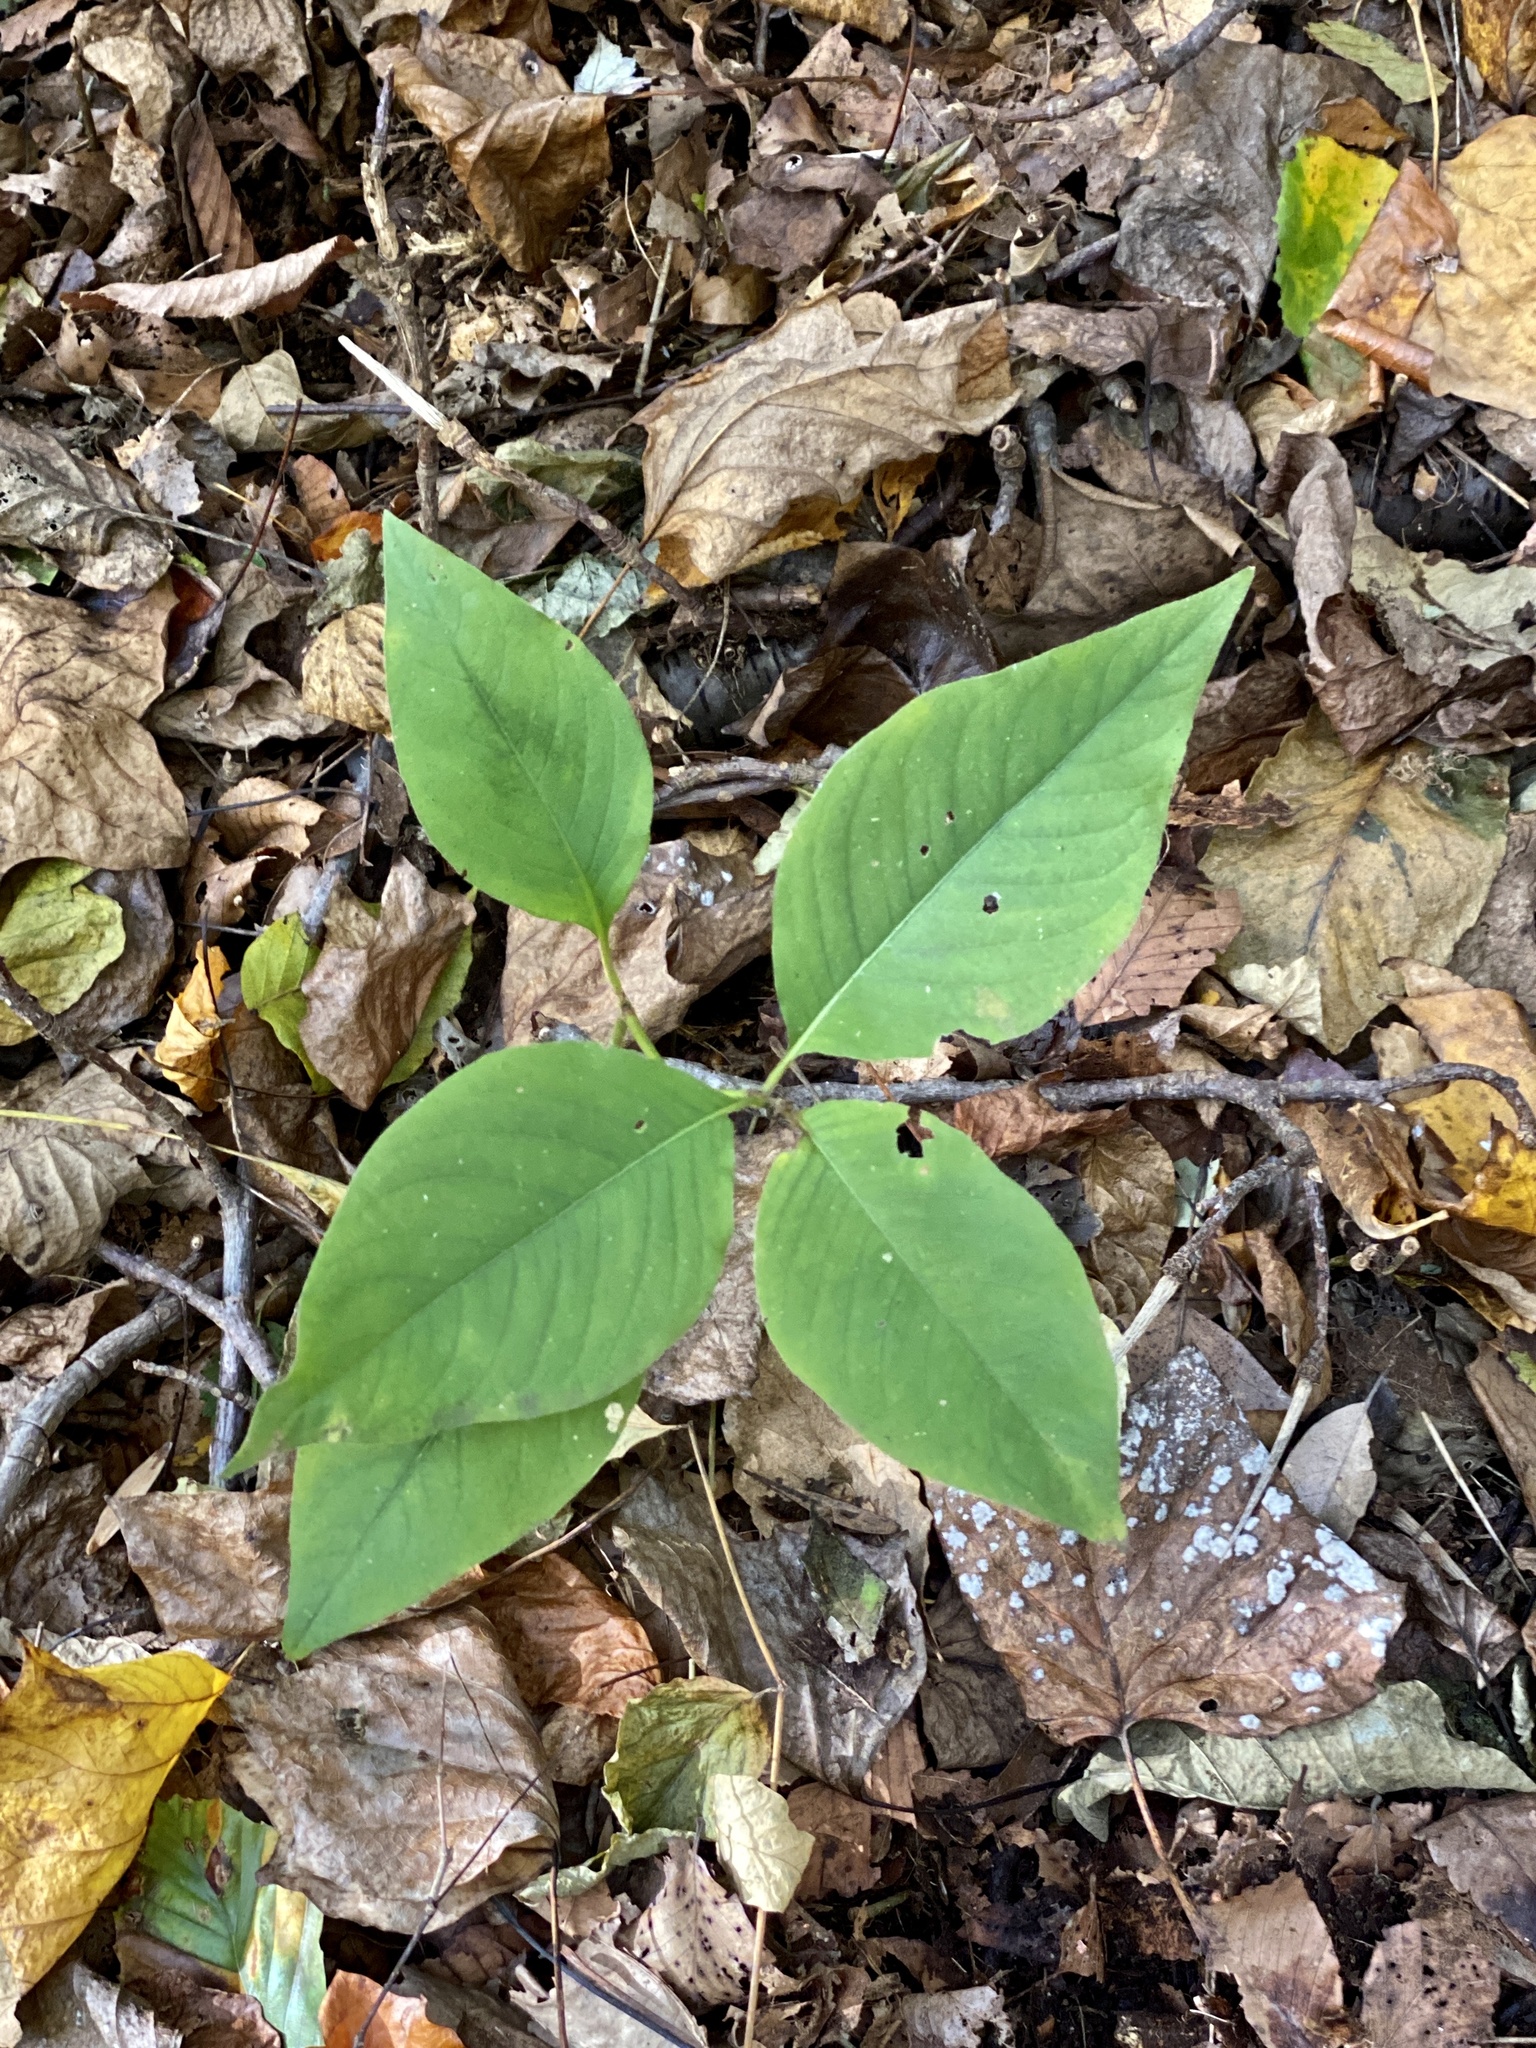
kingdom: Plantae
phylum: Tracheophyta
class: Magnoliopsida
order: Caryophyllales
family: Polygonaceae
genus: Persicaria
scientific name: Persicaria virginiana
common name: Jumpseed
